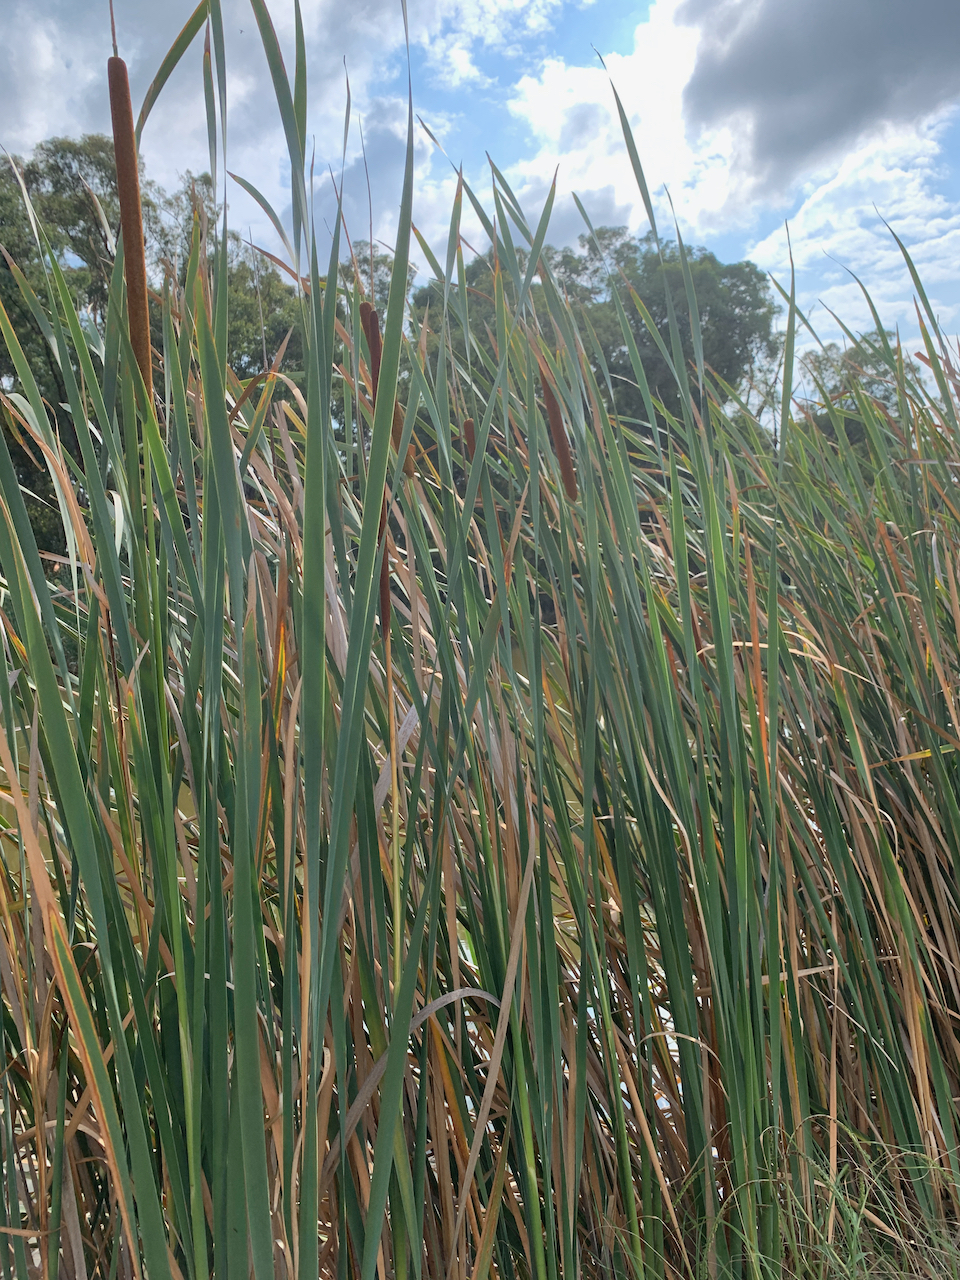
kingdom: Plantae
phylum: Tracheophyta
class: Liliopsida
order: Poales
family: Typhaceae
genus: Typha
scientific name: Typha capensis
